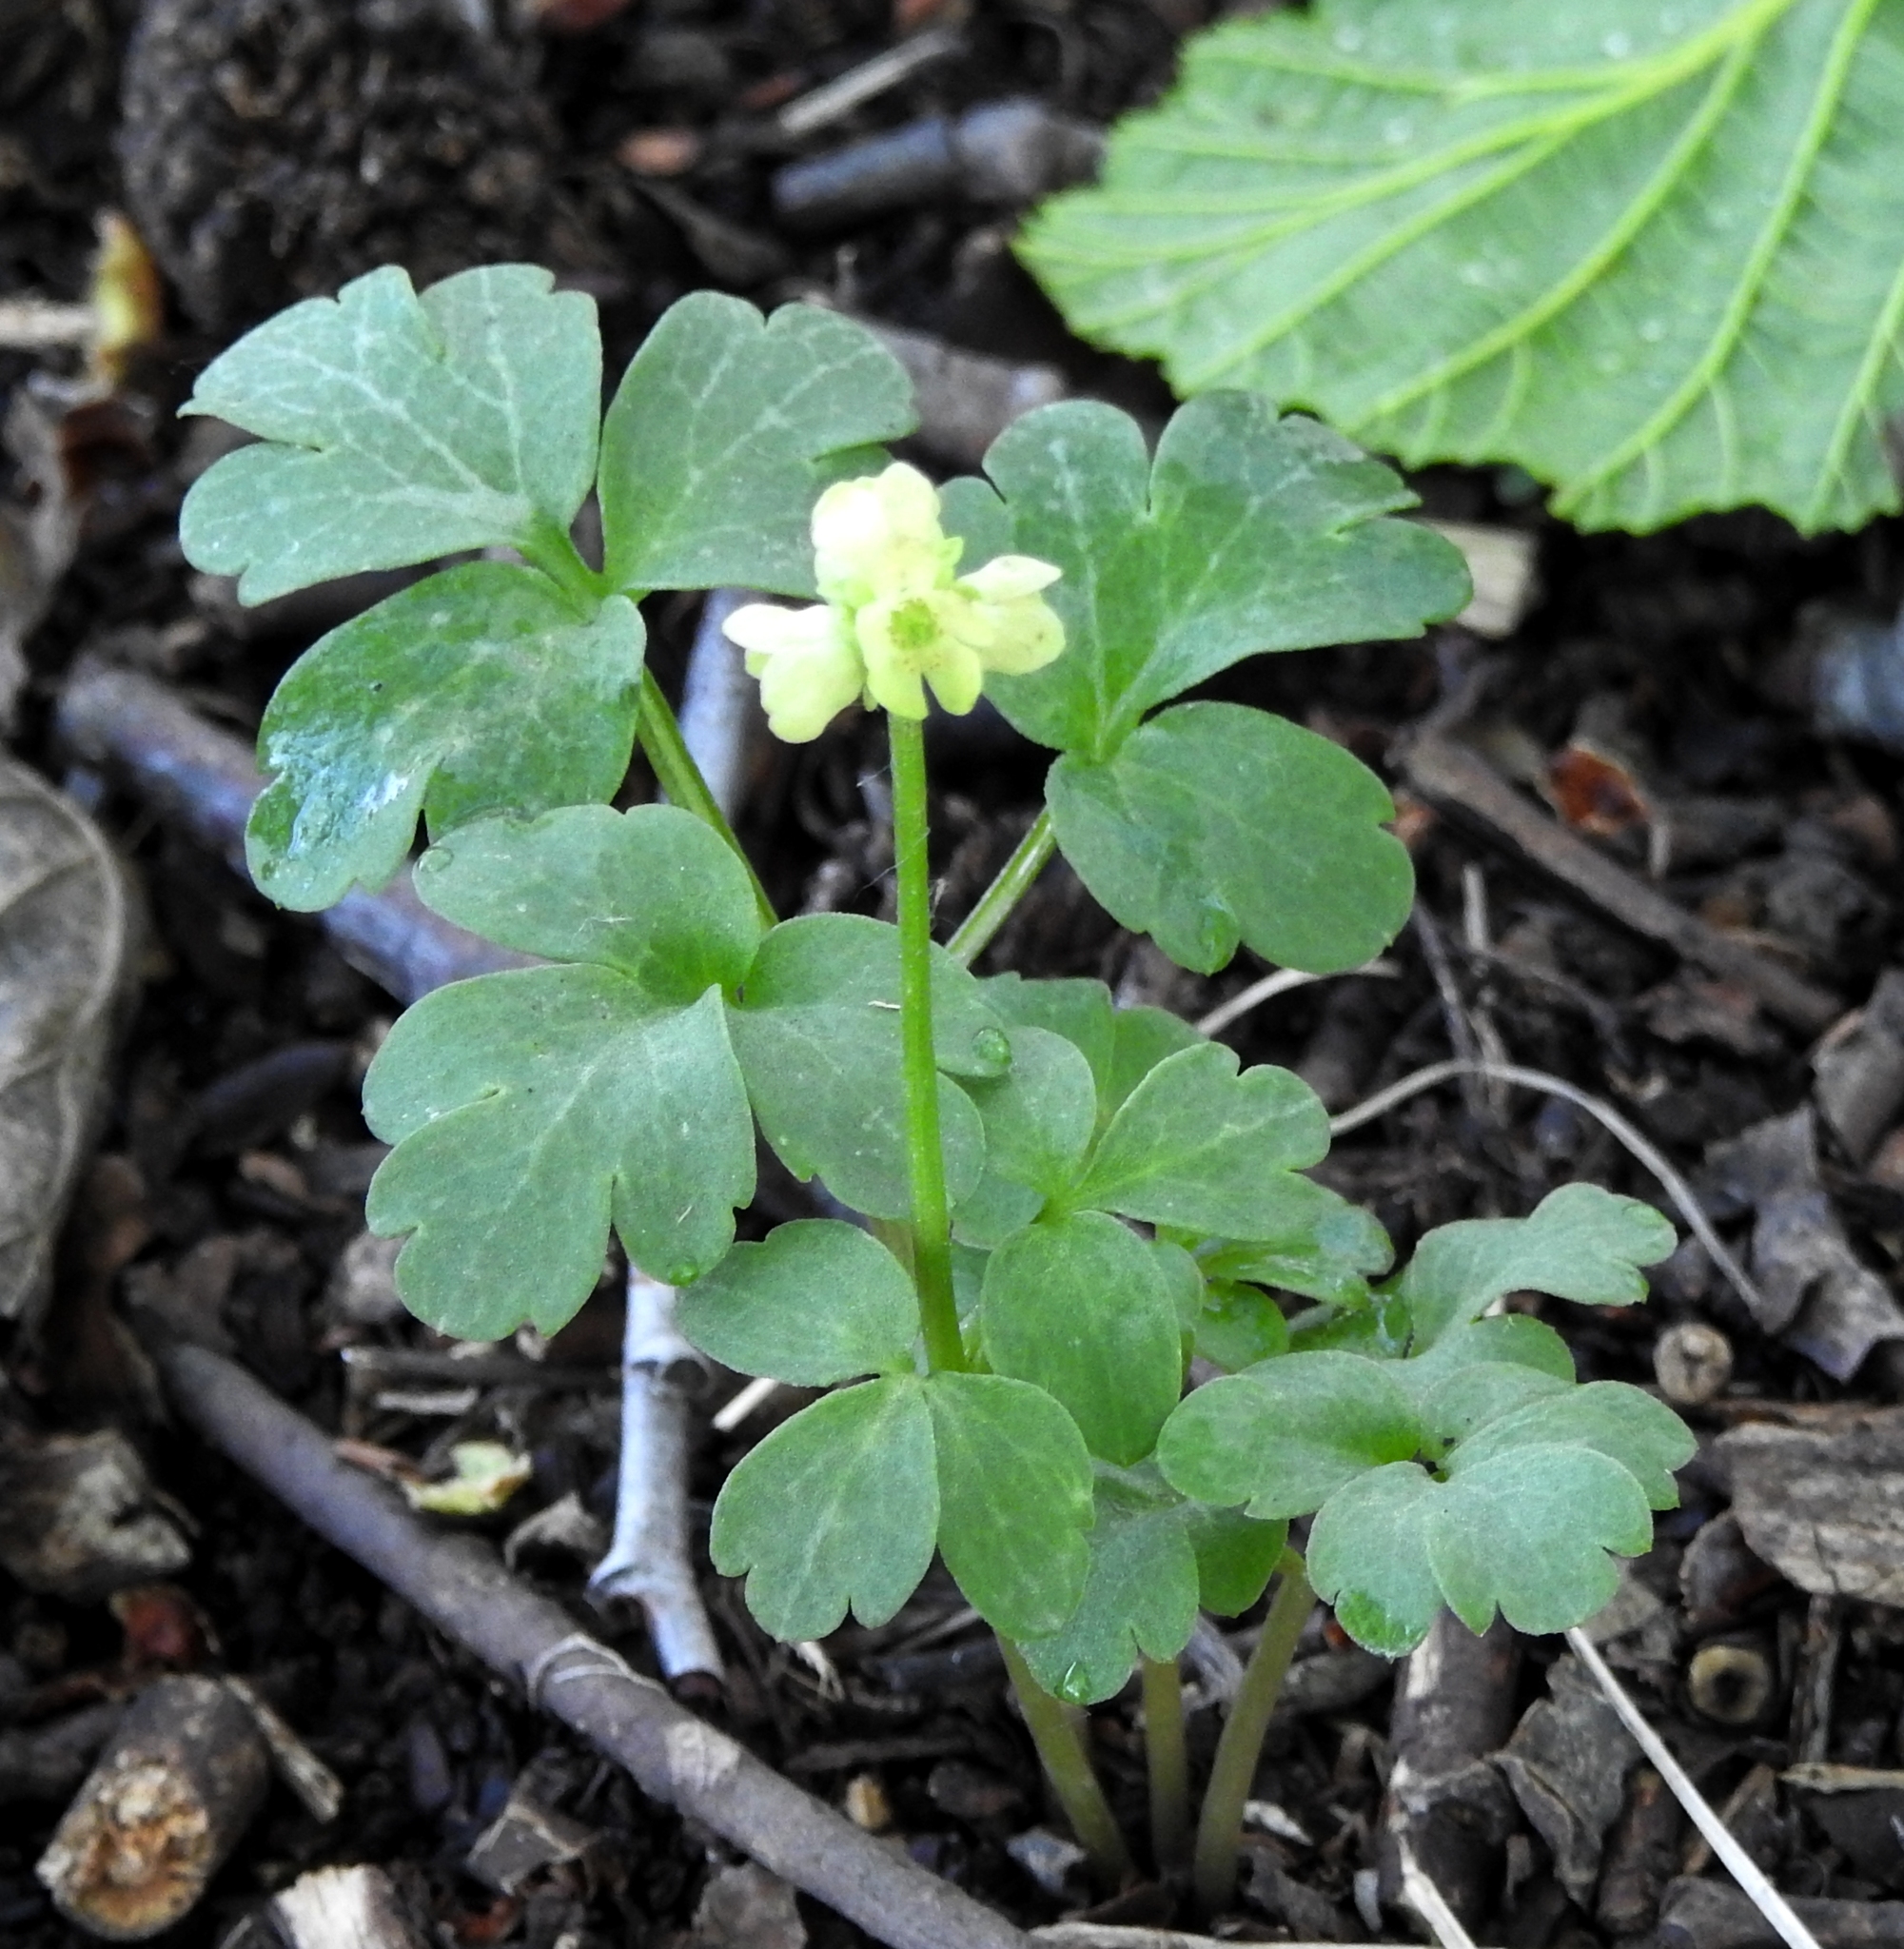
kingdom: Plantae
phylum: Tracheophyta
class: Magnoliopsida
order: Dipsacales
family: Viburnaceae
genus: Adoxa
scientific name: Adoxa moschatellina
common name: Moschatel
